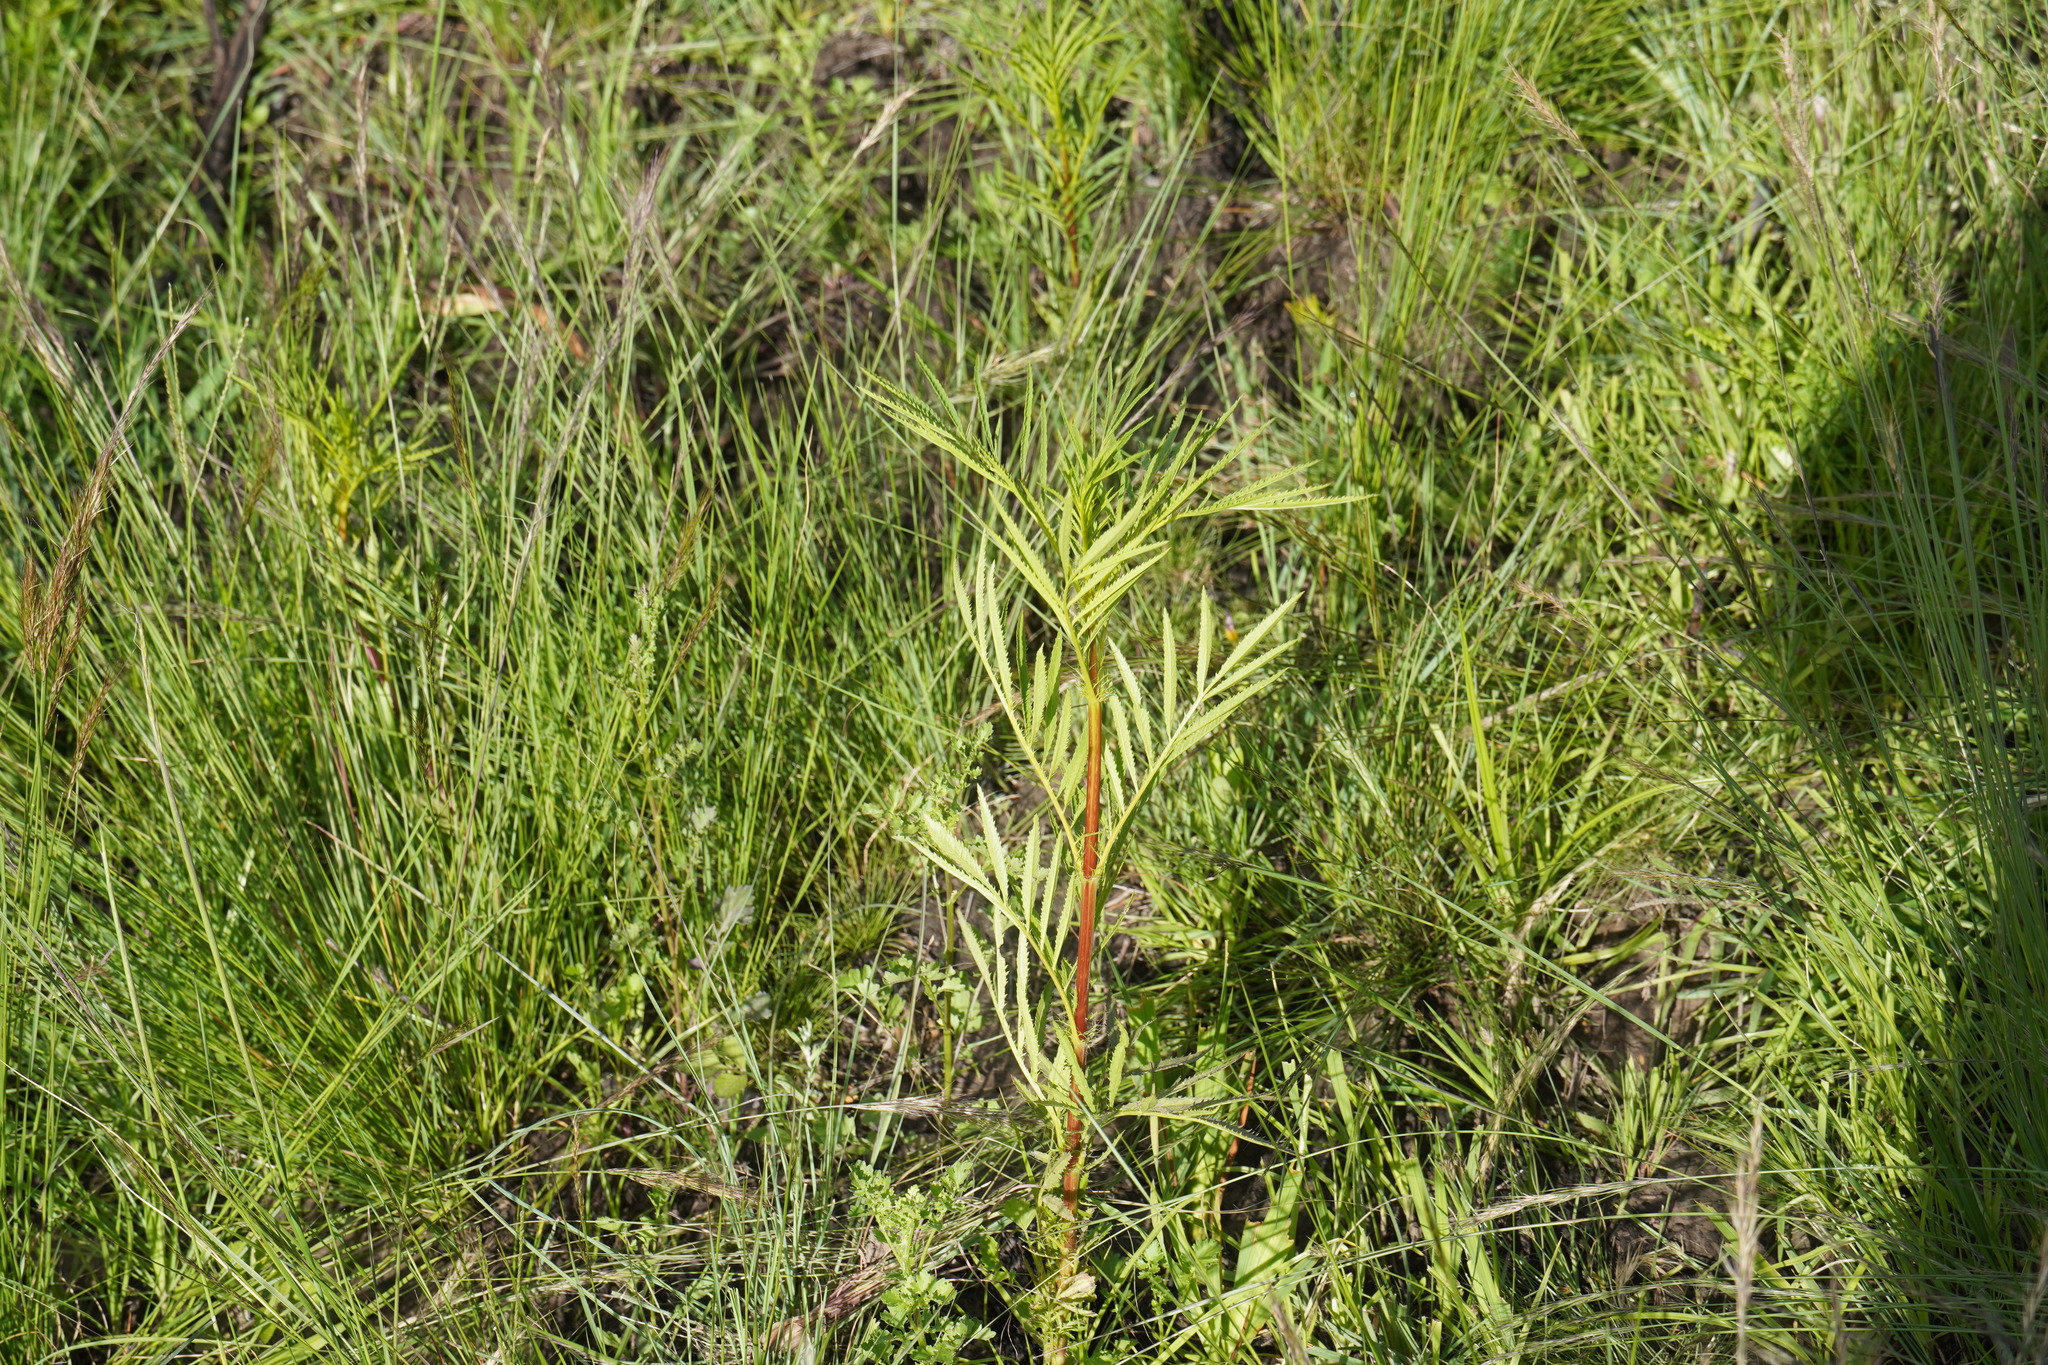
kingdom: Plantae
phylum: Tracheophyta
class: Magnoliopsida
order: Asterales
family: Asteraceae
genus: Tagetes
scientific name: Tagetes minuta
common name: Muster john henry
